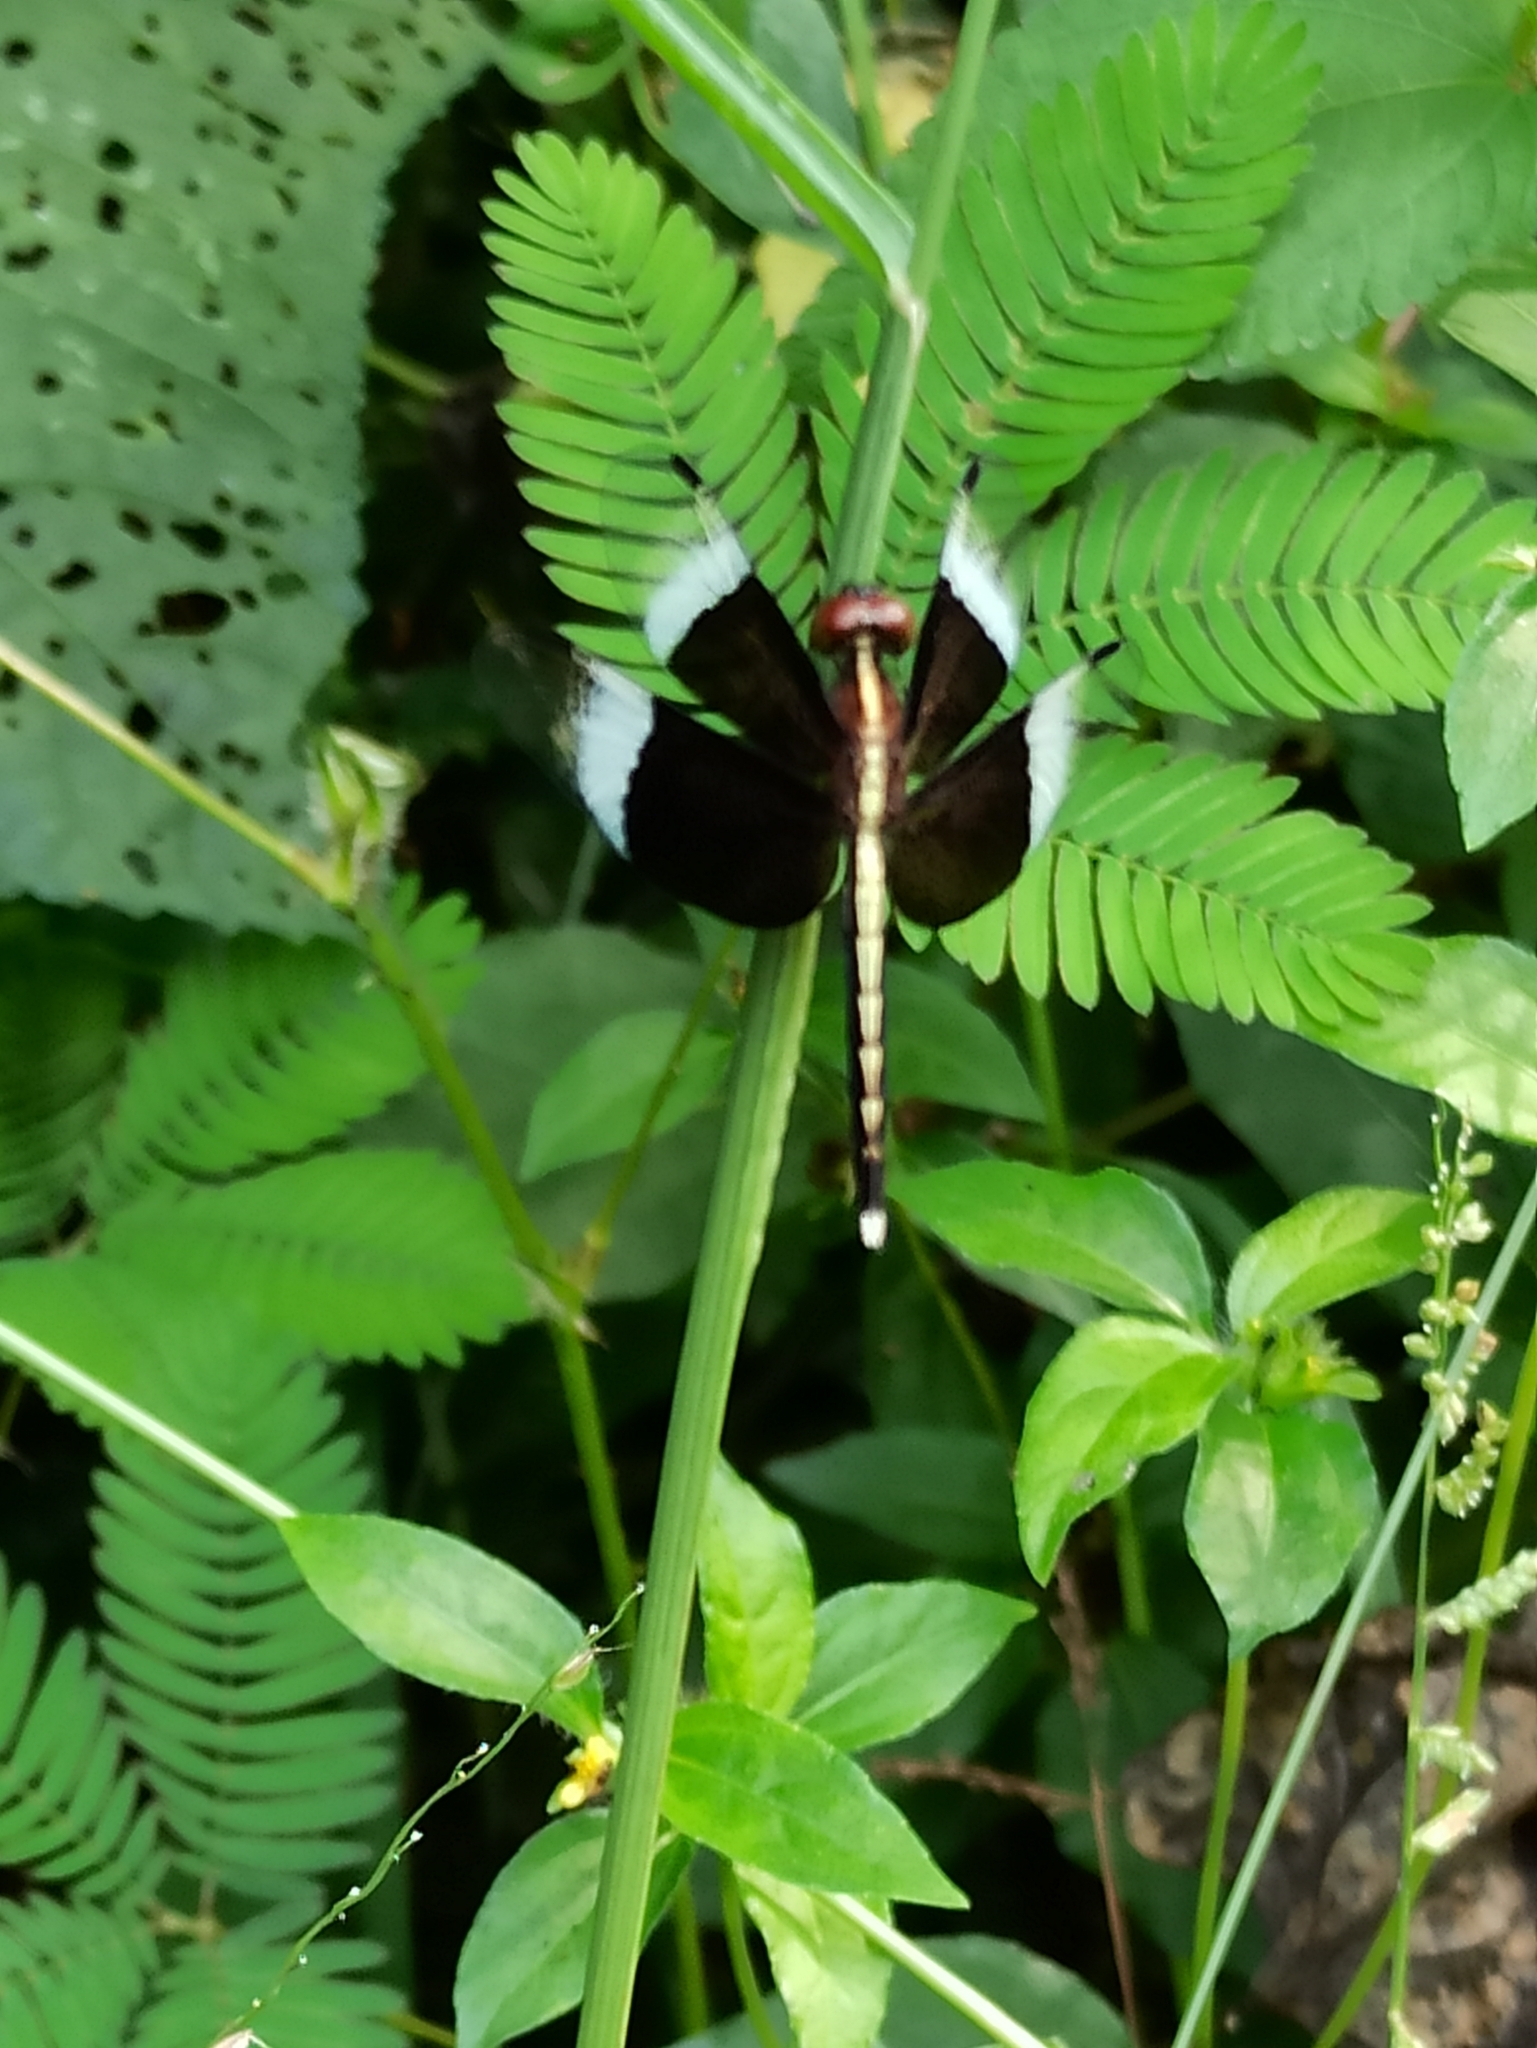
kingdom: Animalia
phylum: Arthropoda
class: Insecta
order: Odonata
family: Libellulidae
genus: Neurothemis
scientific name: Neurothemis tullia
